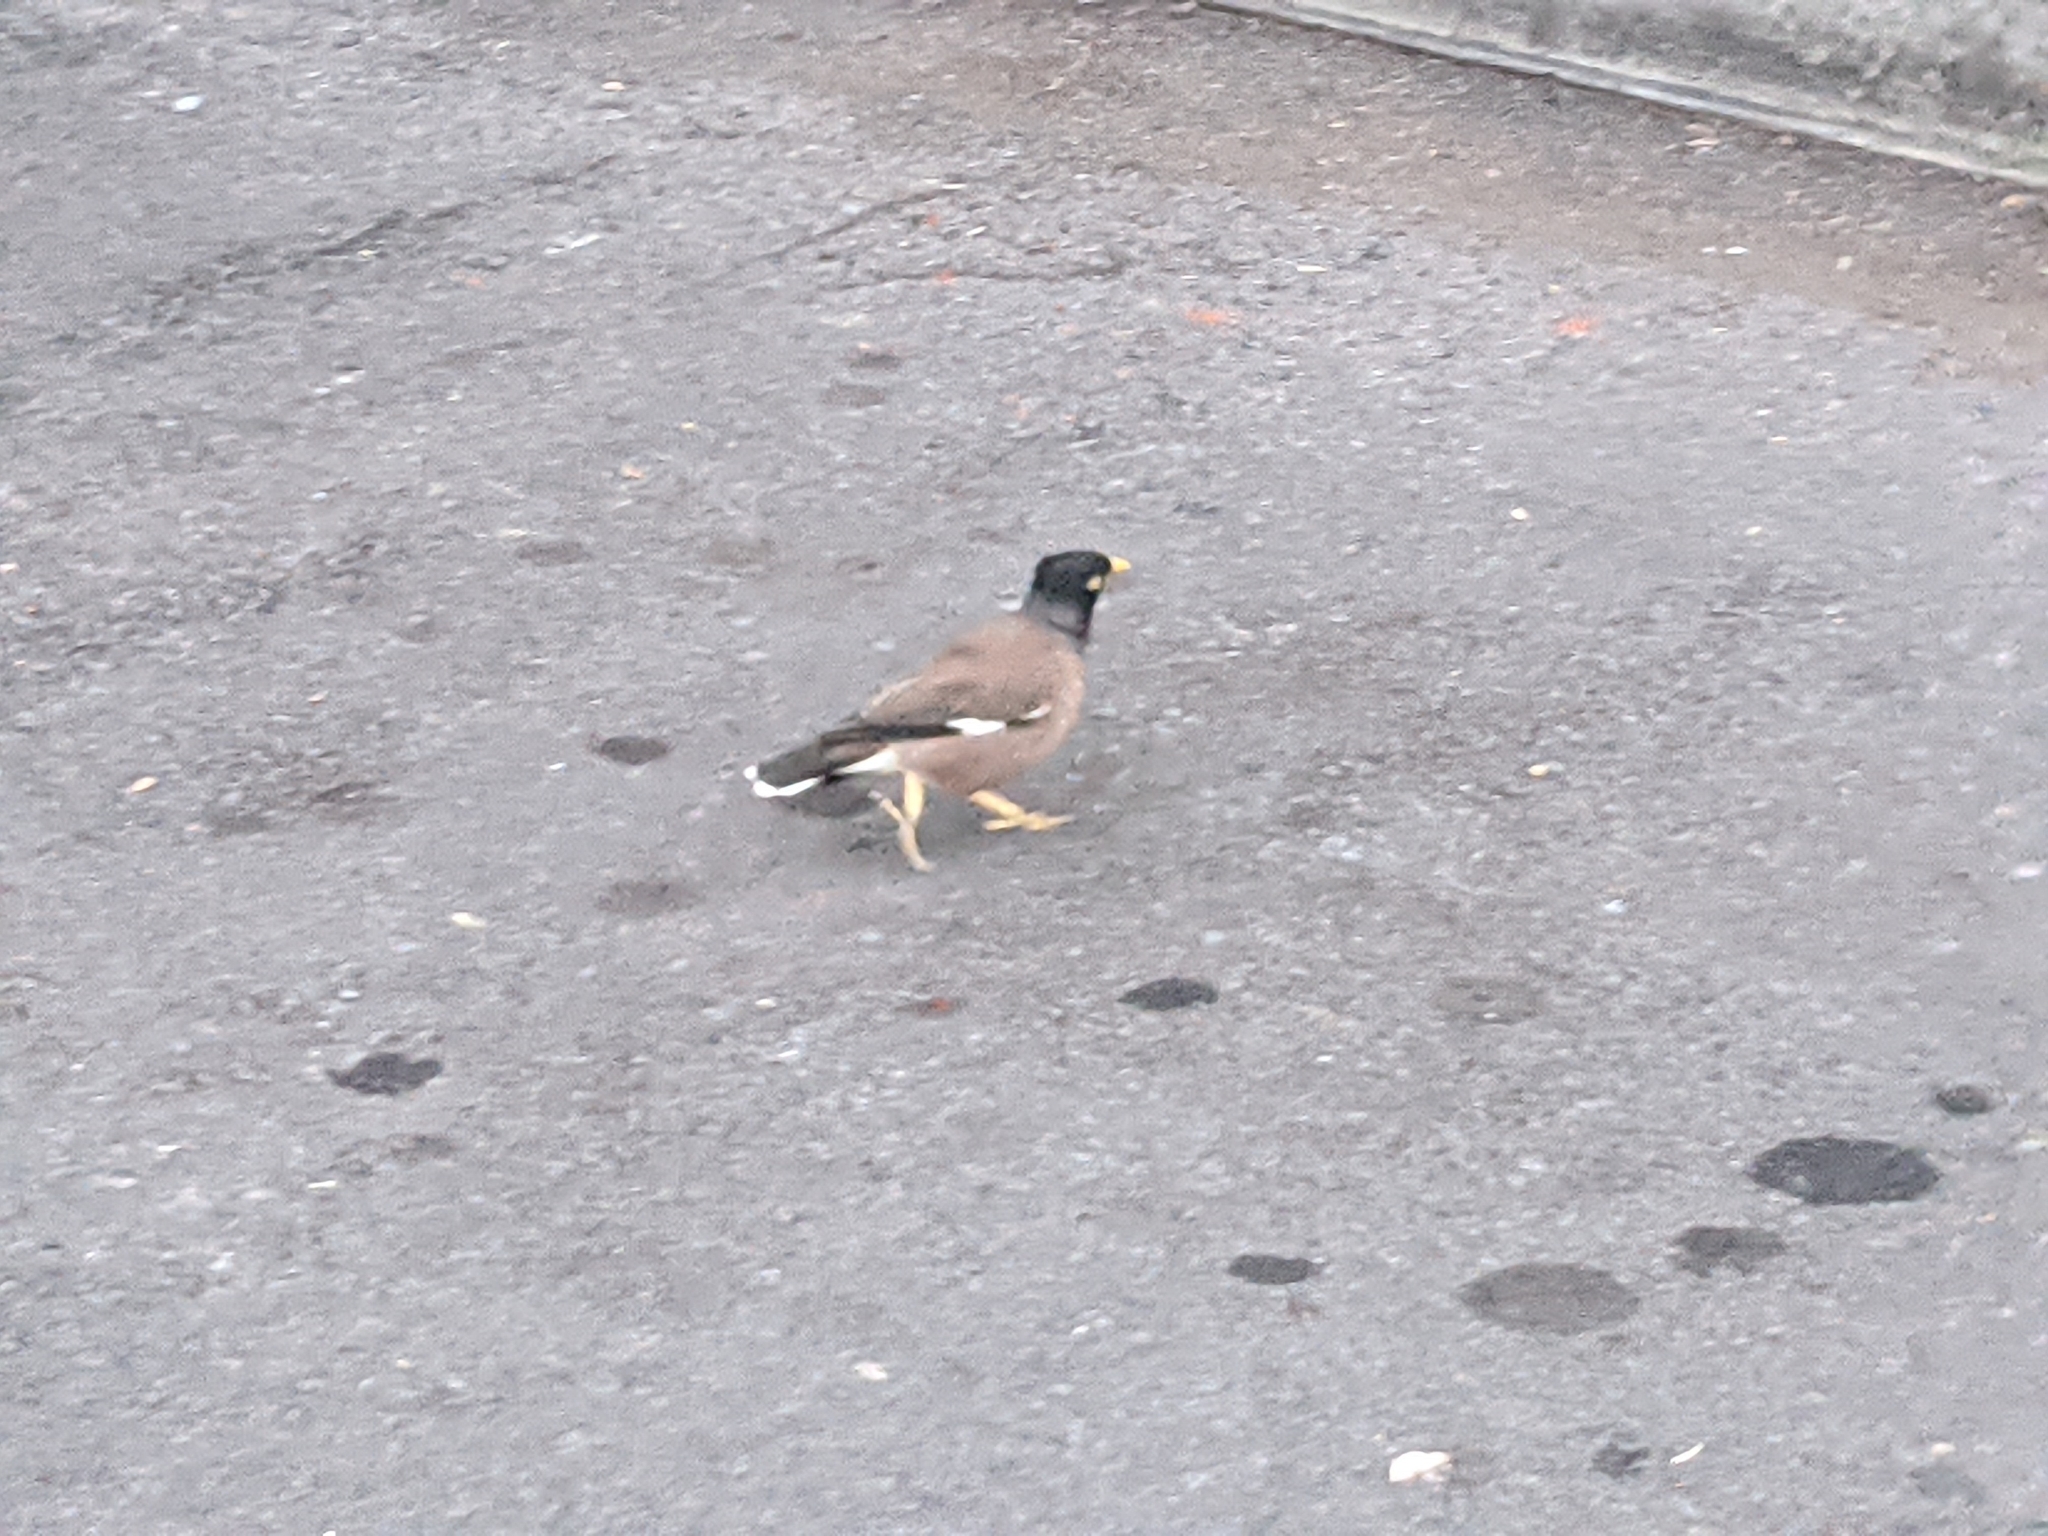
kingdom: Animalia
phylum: Chordata
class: Aves
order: Passeriformes
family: Sturnidae
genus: Acridotheres
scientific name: Acridotheres tristis
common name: Common myna
